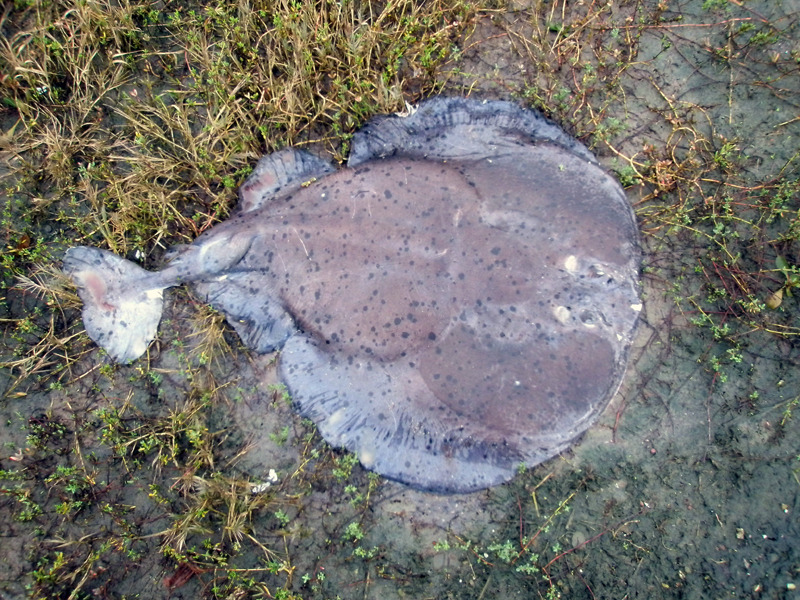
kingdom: Animalia
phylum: Chordata
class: Elasmobranchii
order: Torpediniformes
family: Torpedinidae
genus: Tetronarce
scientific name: Tetronarce californica
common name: Pacific electric ray
